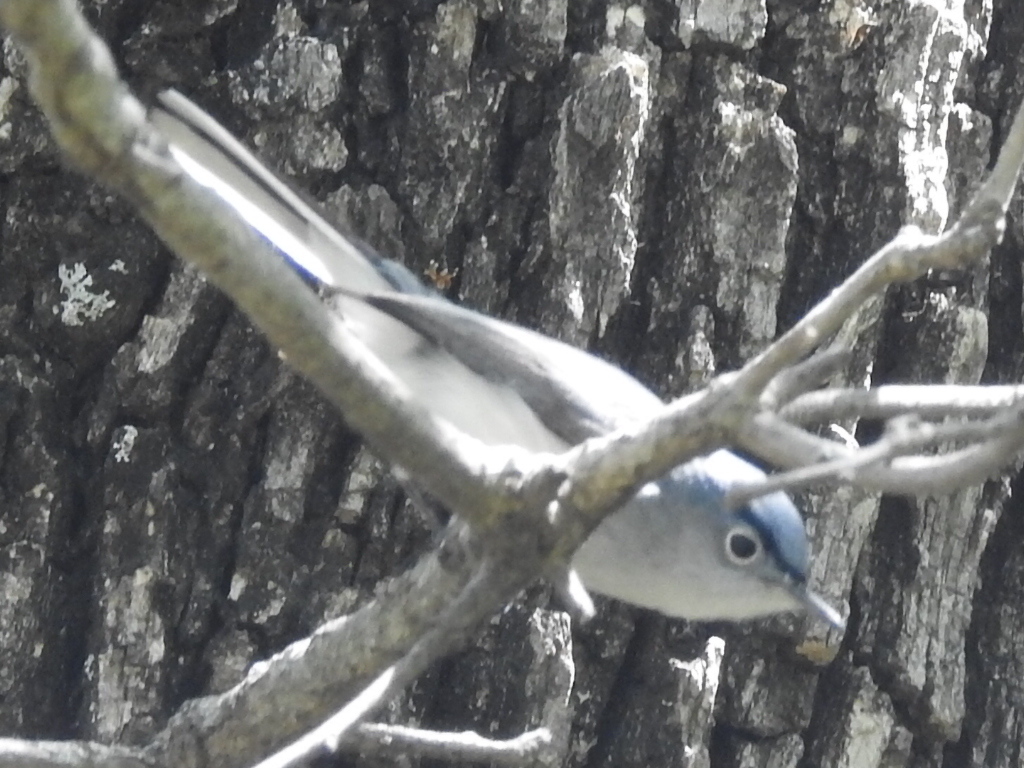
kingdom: Animalia
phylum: Chordata
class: Aves
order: Passeriformes
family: Polioptilidae
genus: Polioptila
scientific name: Polioptila caerulea
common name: Blue-gray gnatcatcher
